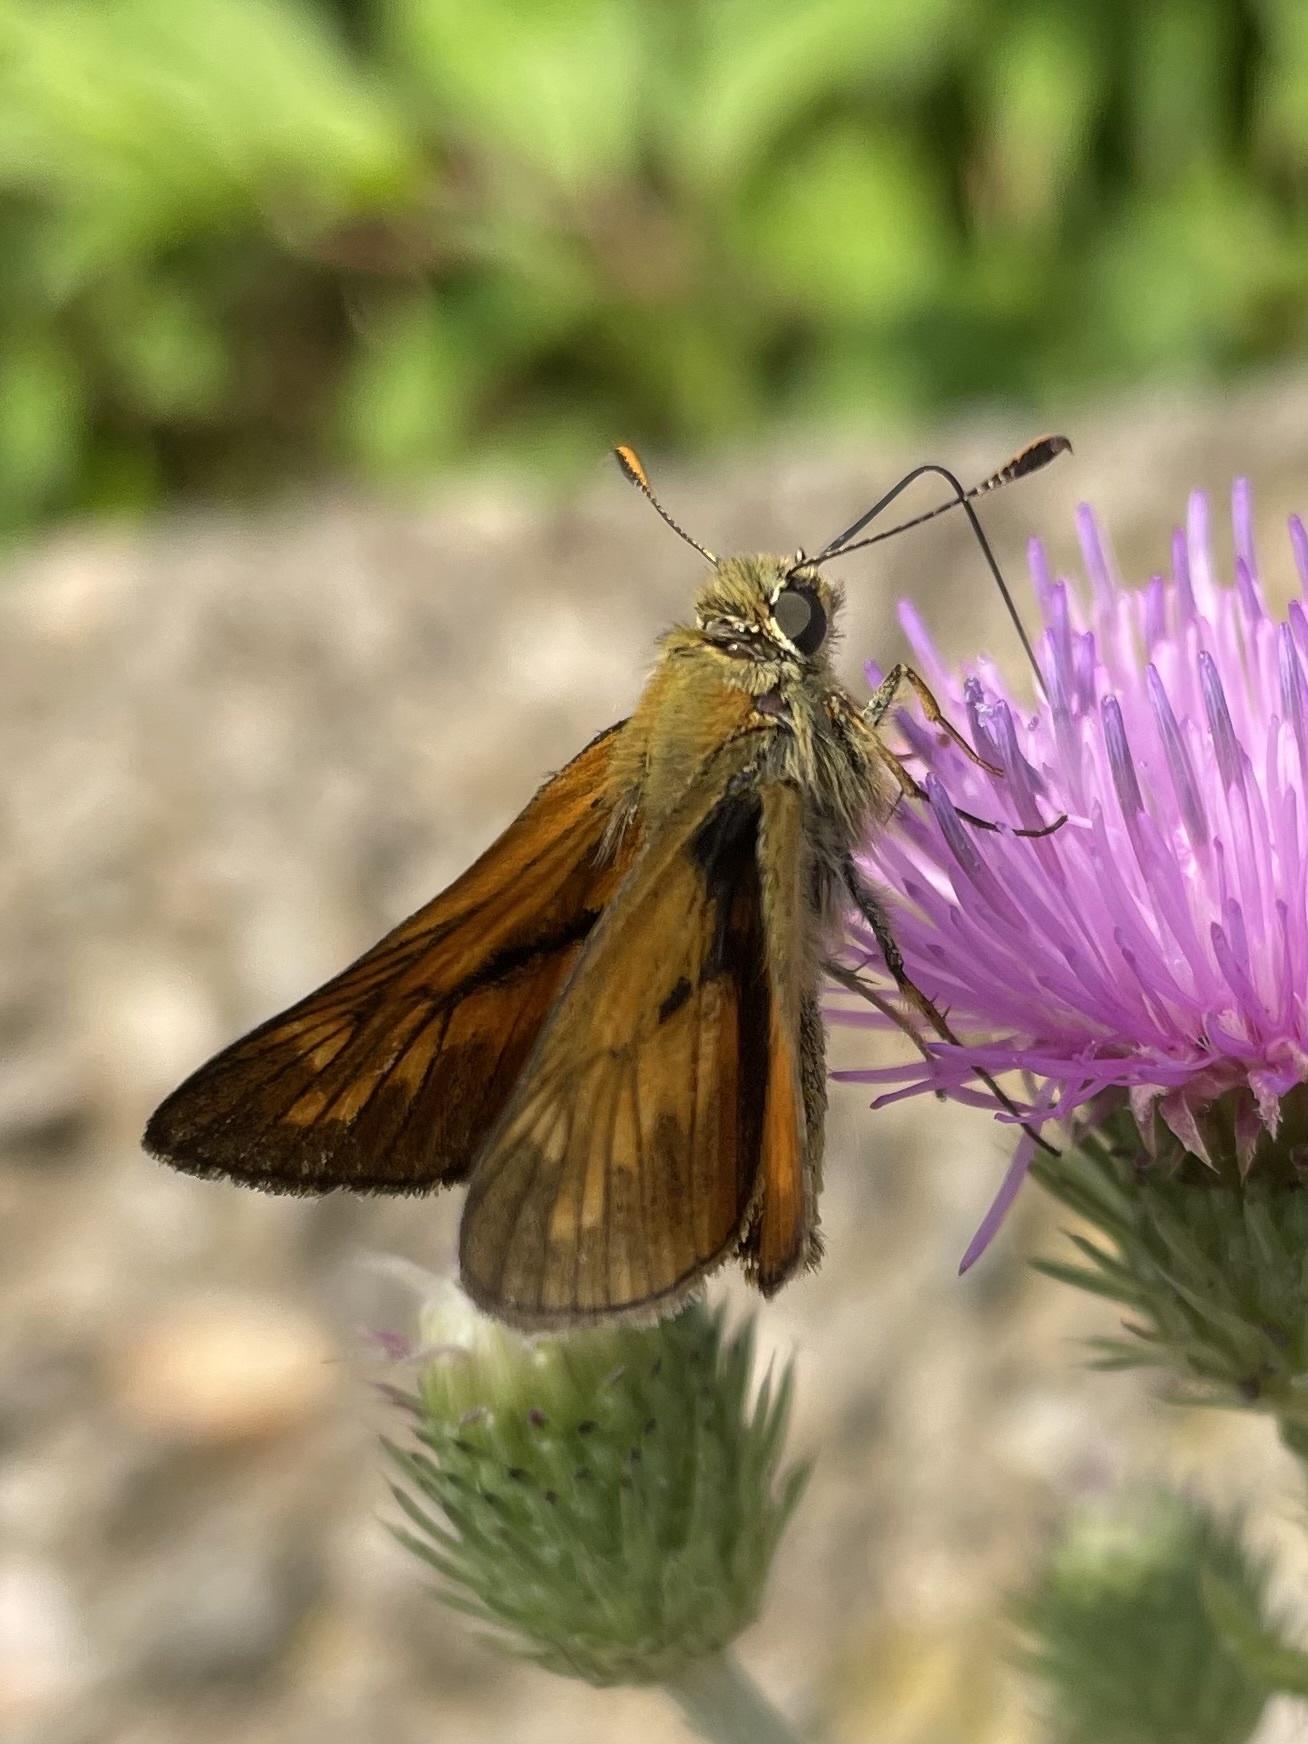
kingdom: Animalia
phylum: Arthropoda
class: Insecta
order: Lepidoptera
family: Hesperiidae
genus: Ochlodes
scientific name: Ochlodes venata
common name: Large skipper
